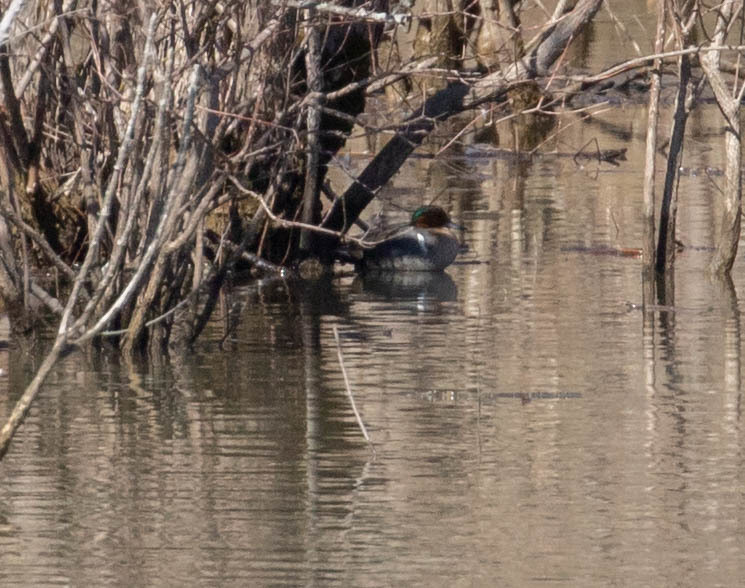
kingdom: Animalia
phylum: Chordata
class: Aves
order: Anseriformes
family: Anatidae
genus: Anas
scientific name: Anas crecca
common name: Eurasian teal
